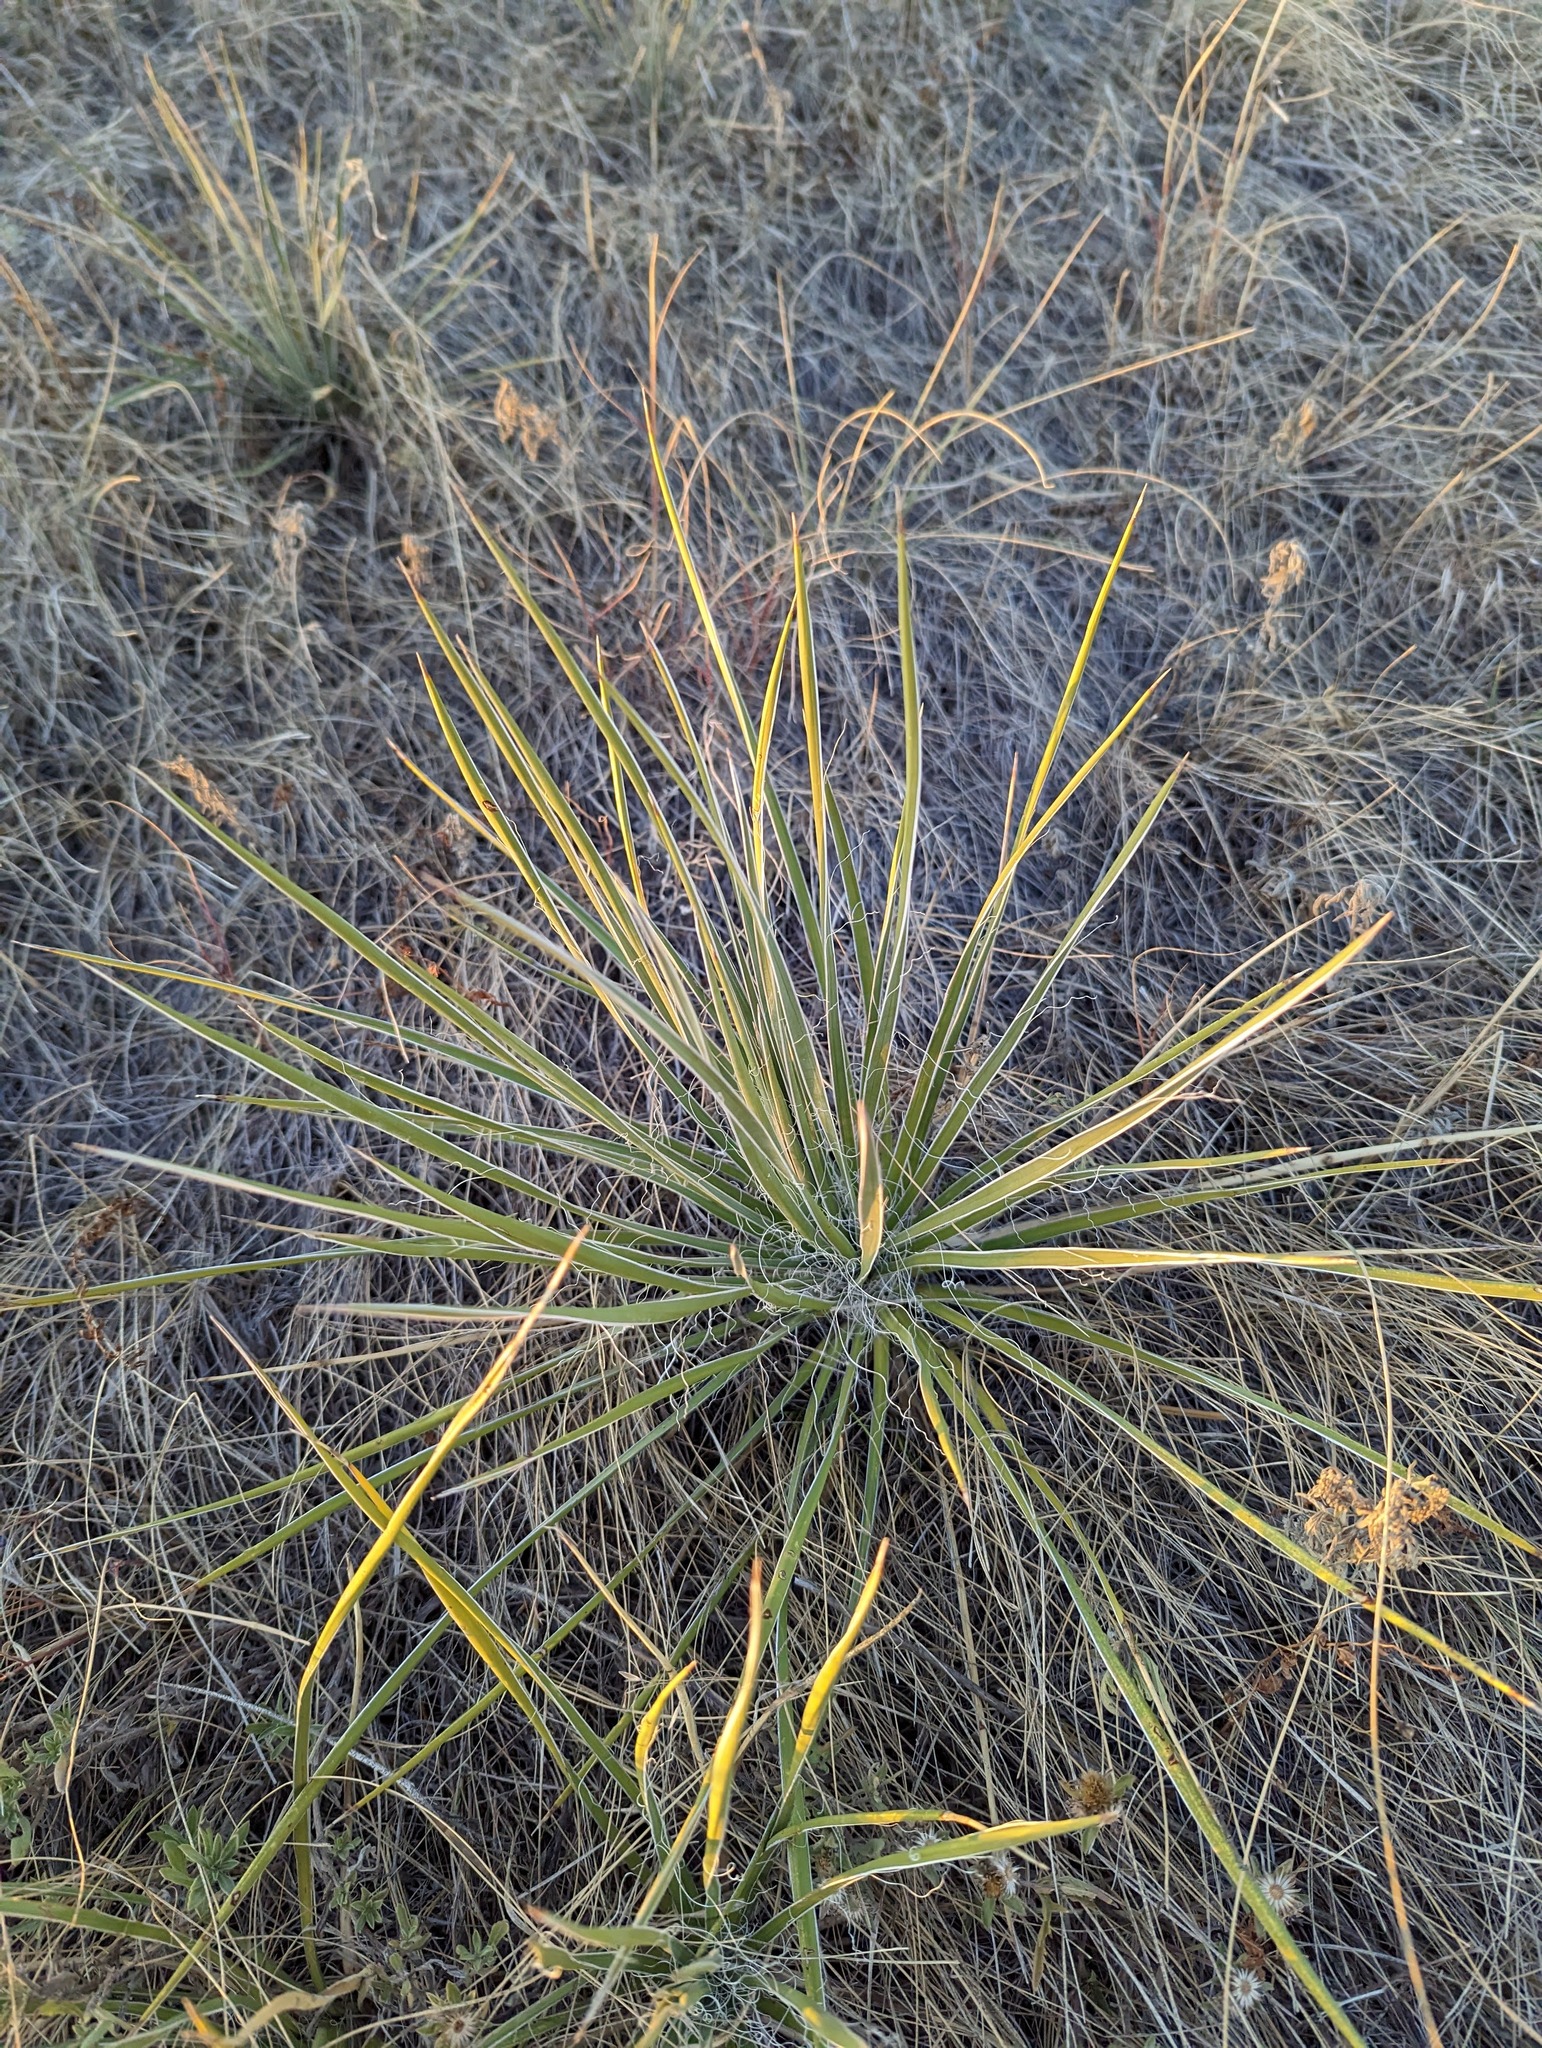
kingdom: Plantae
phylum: Tracheophyta
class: Liliopsida
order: Asparagales
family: Asparagaceae
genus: Yucca
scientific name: Yucca glauca
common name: Great plains yucca
